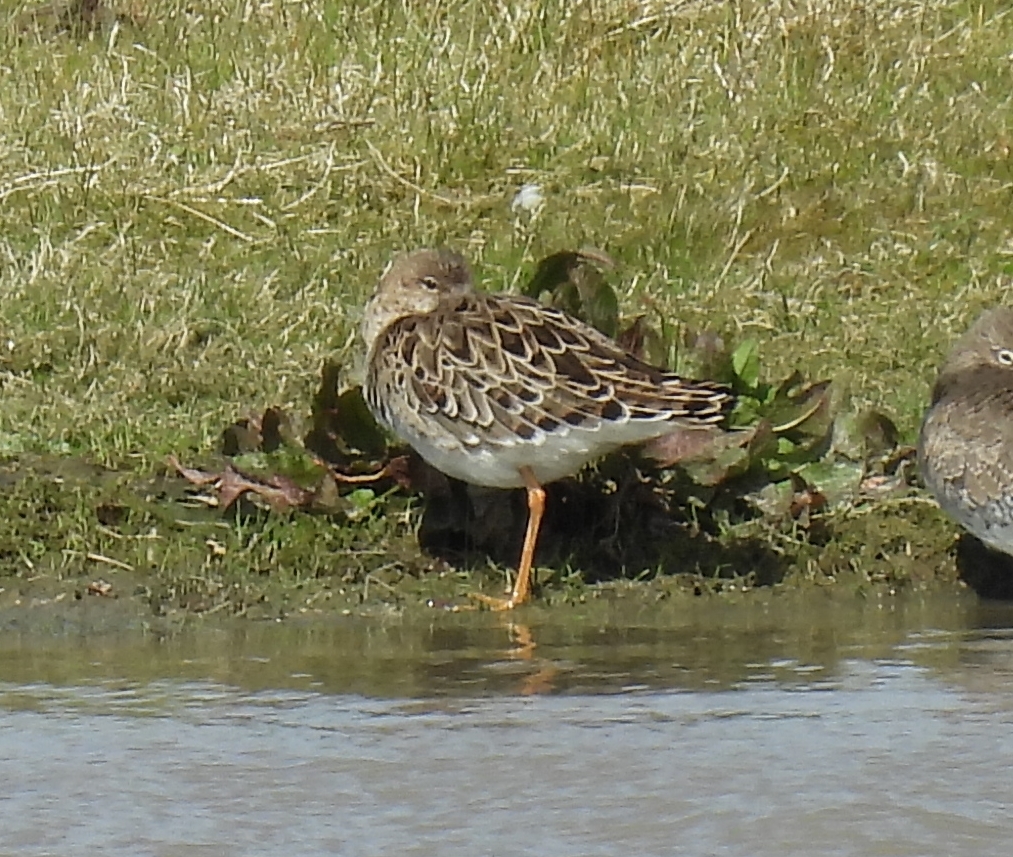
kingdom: Animalia
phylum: Chordata
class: Aves
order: Charadriiformes
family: Scolopacidae
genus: Calidris
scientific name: Calidris pugnax
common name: Ruff
